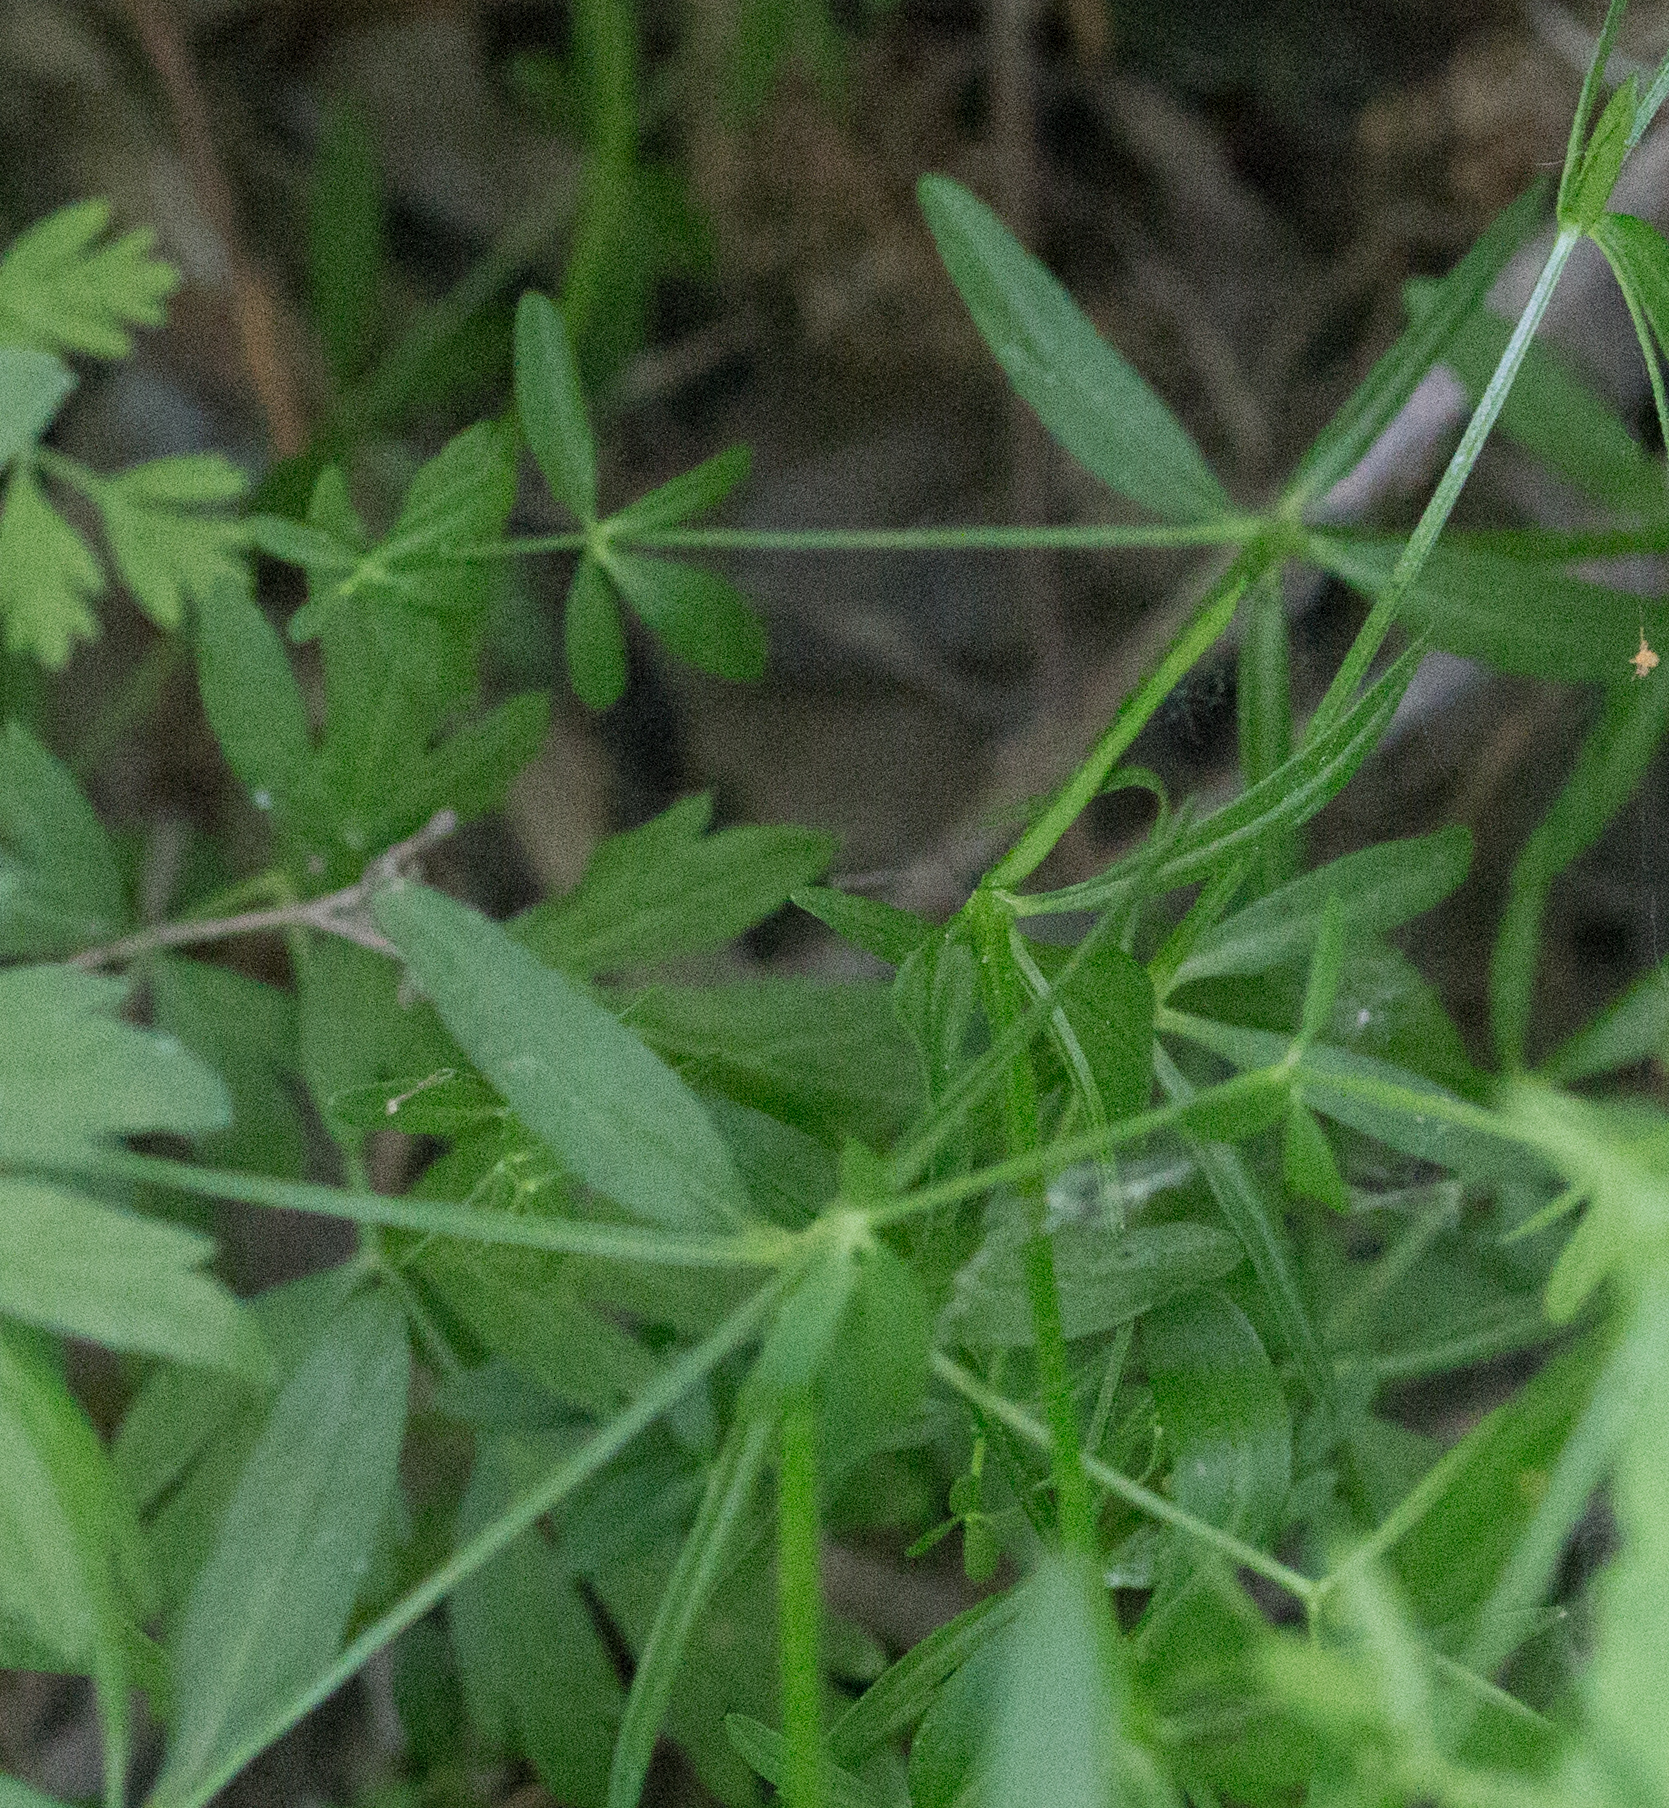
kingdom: Plantae
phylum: Tracheophyta
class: Magnoliopsida
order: Gentianales
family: Rubiaceae
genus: Galium
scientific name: Galium palustre
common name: Common marsh-bedstraw
